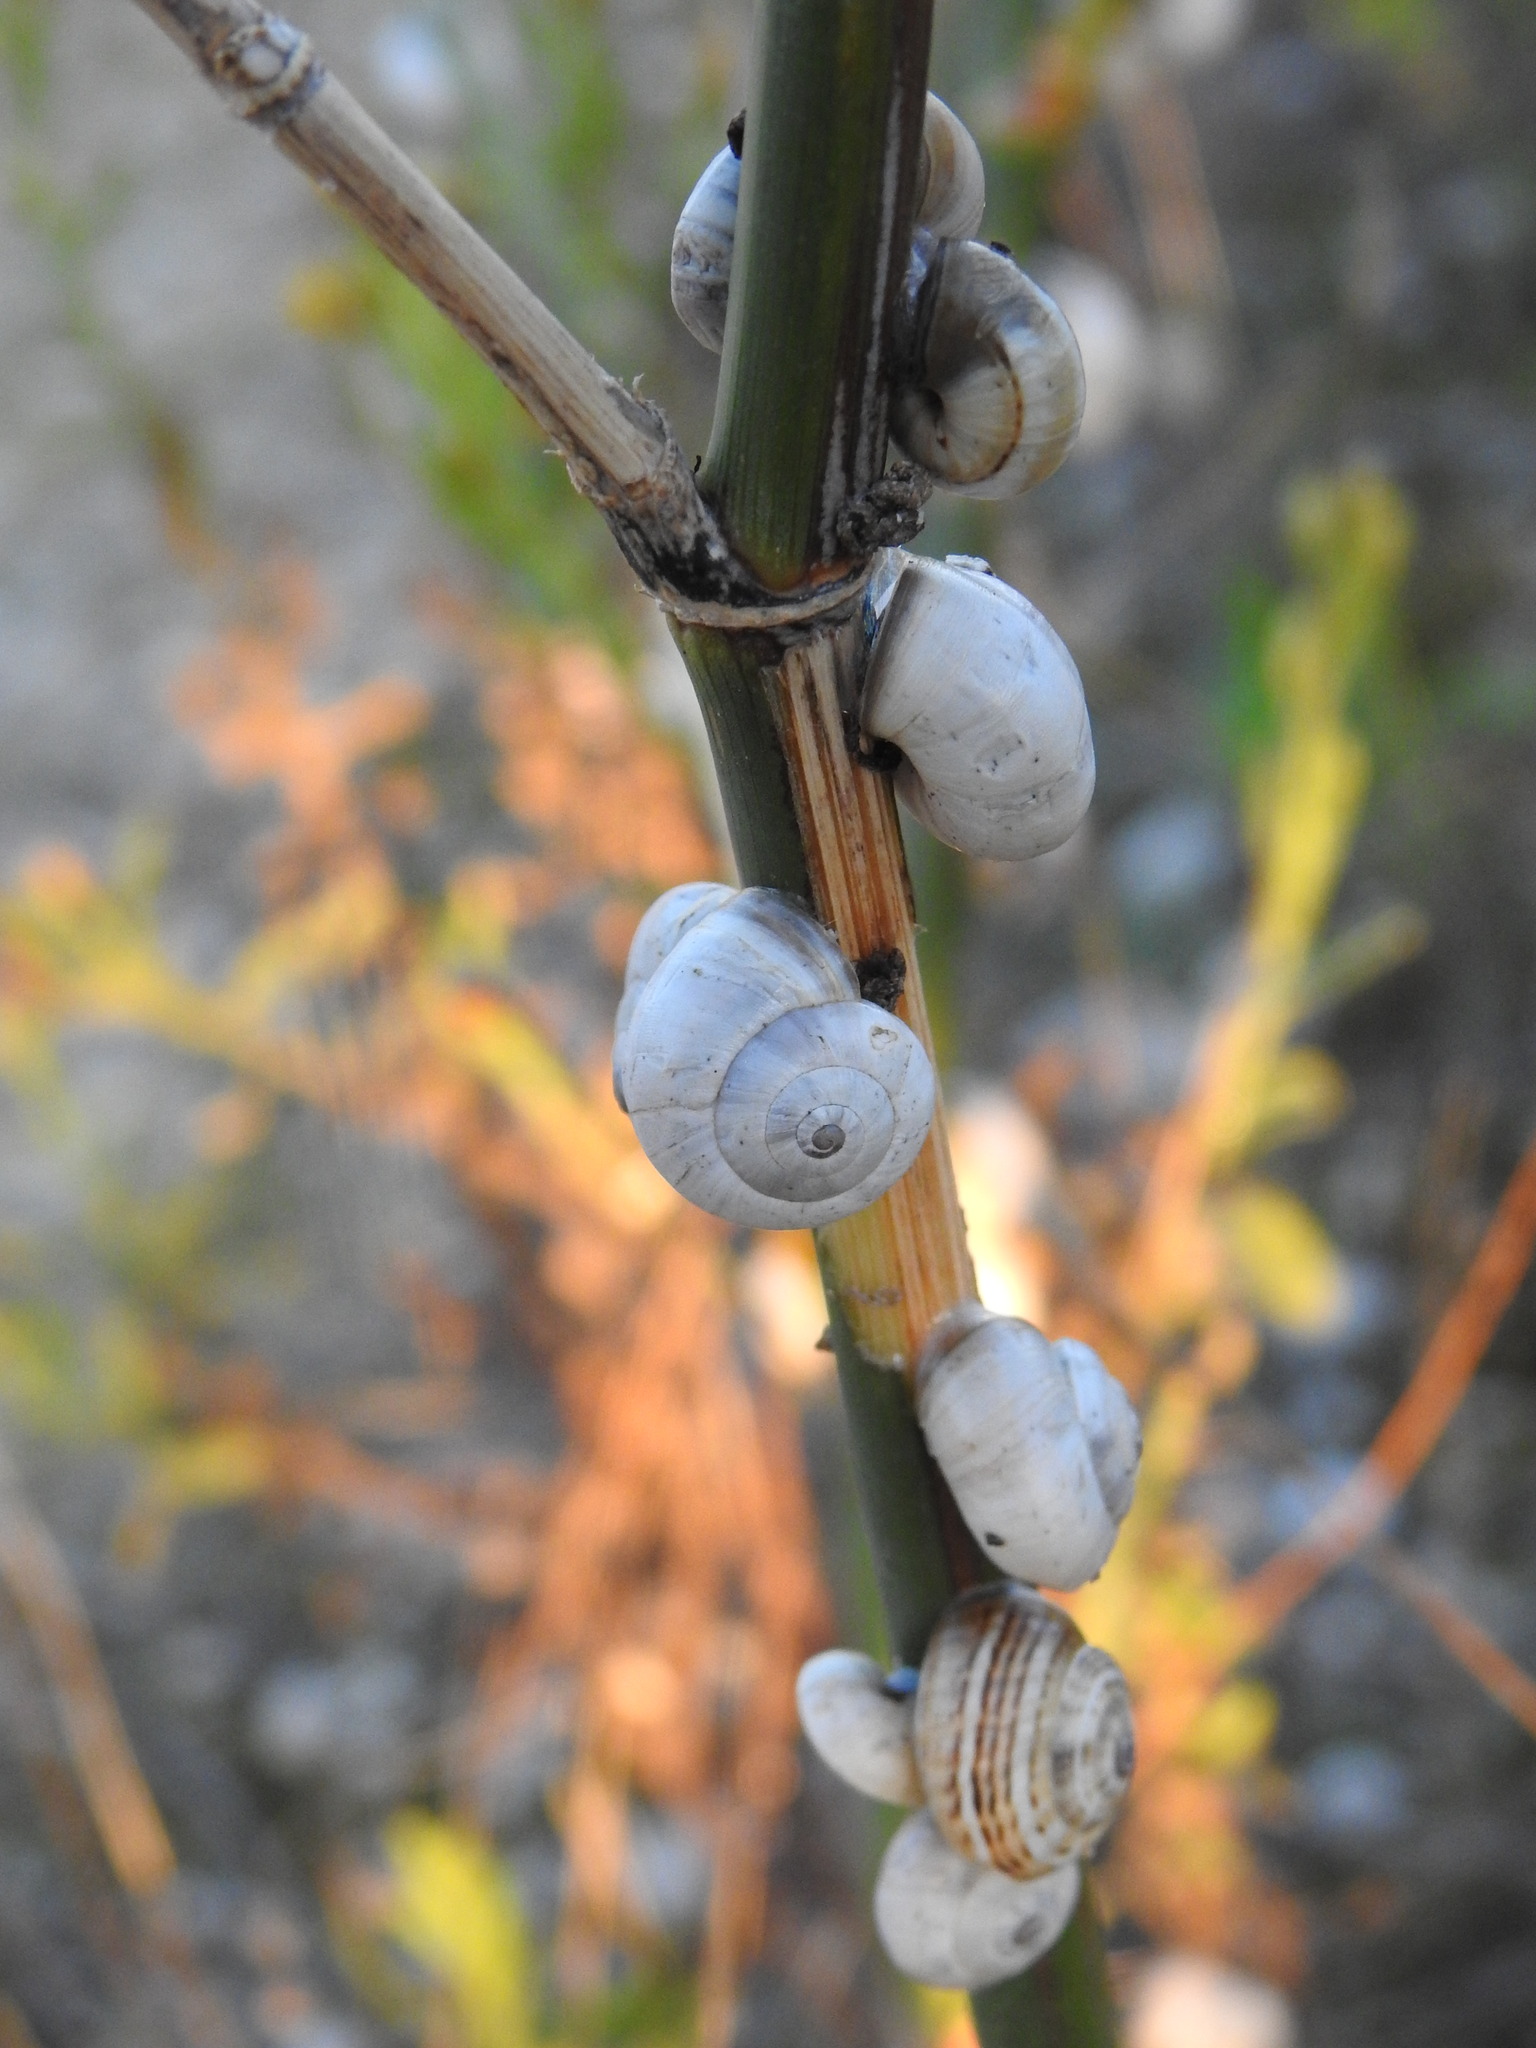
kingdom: Animalia
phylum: Mollusca
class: Gastropoda
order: Stylommatophora
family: Helicidae
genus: Theba
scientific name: Theba pisana
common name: White snail
